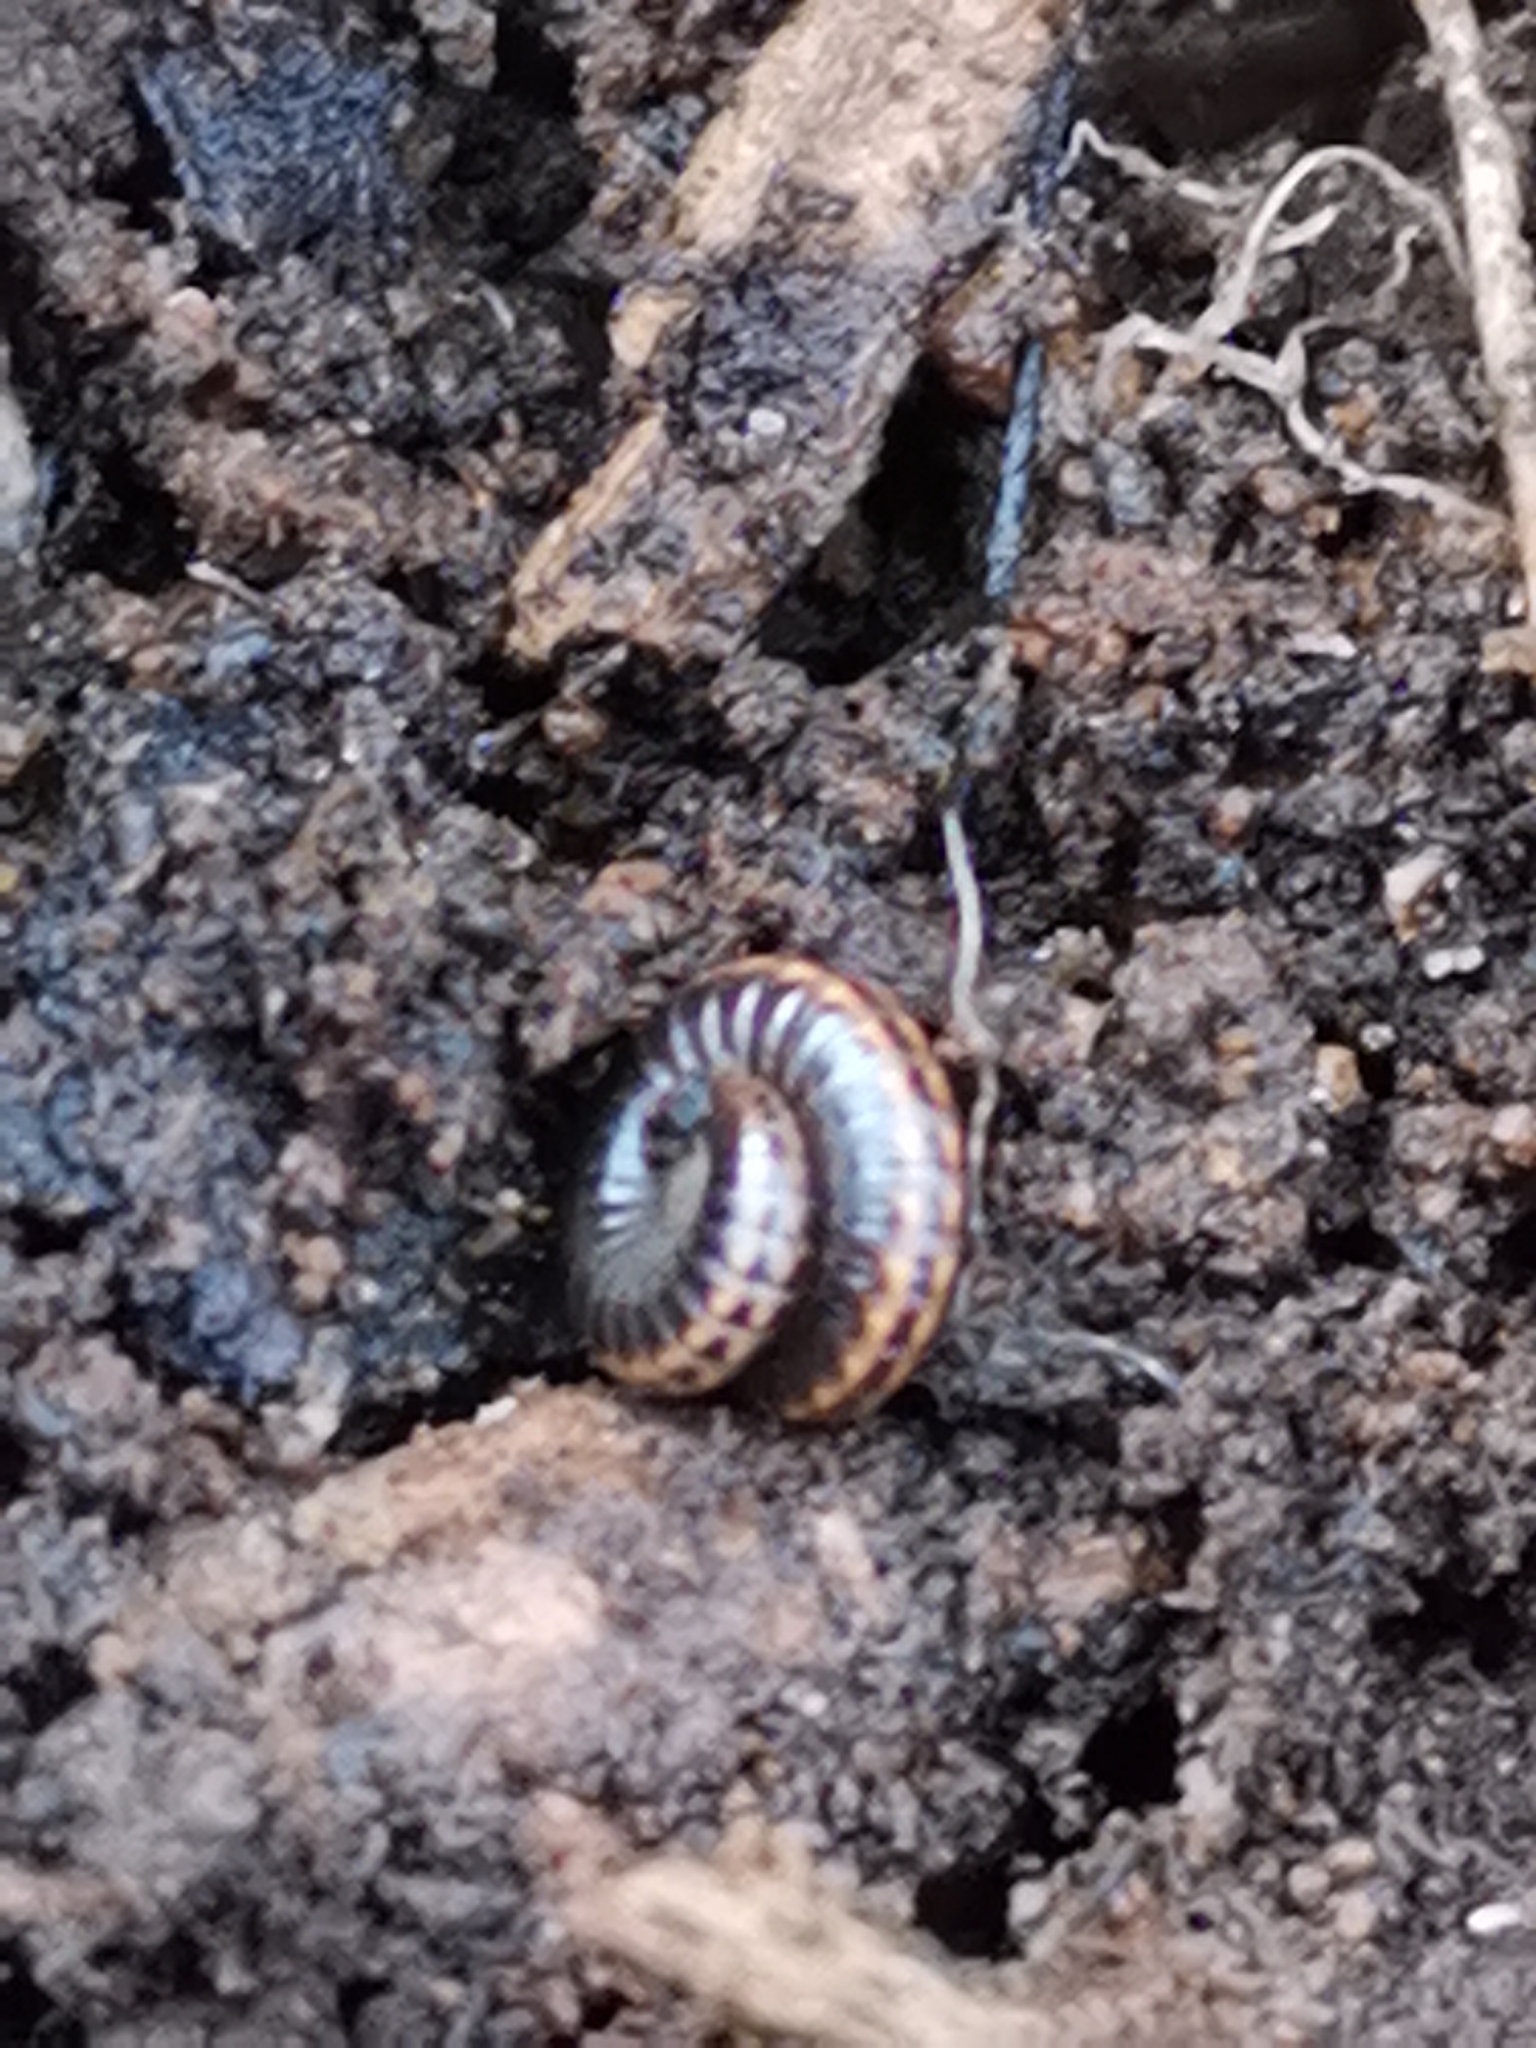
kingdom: Animalia
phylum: Arthropoda
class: Diplopoda
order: Julida
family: Julidae
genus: Ommatoiulus
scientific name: Ommatoiulus sabulosus
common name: Striped millipede
